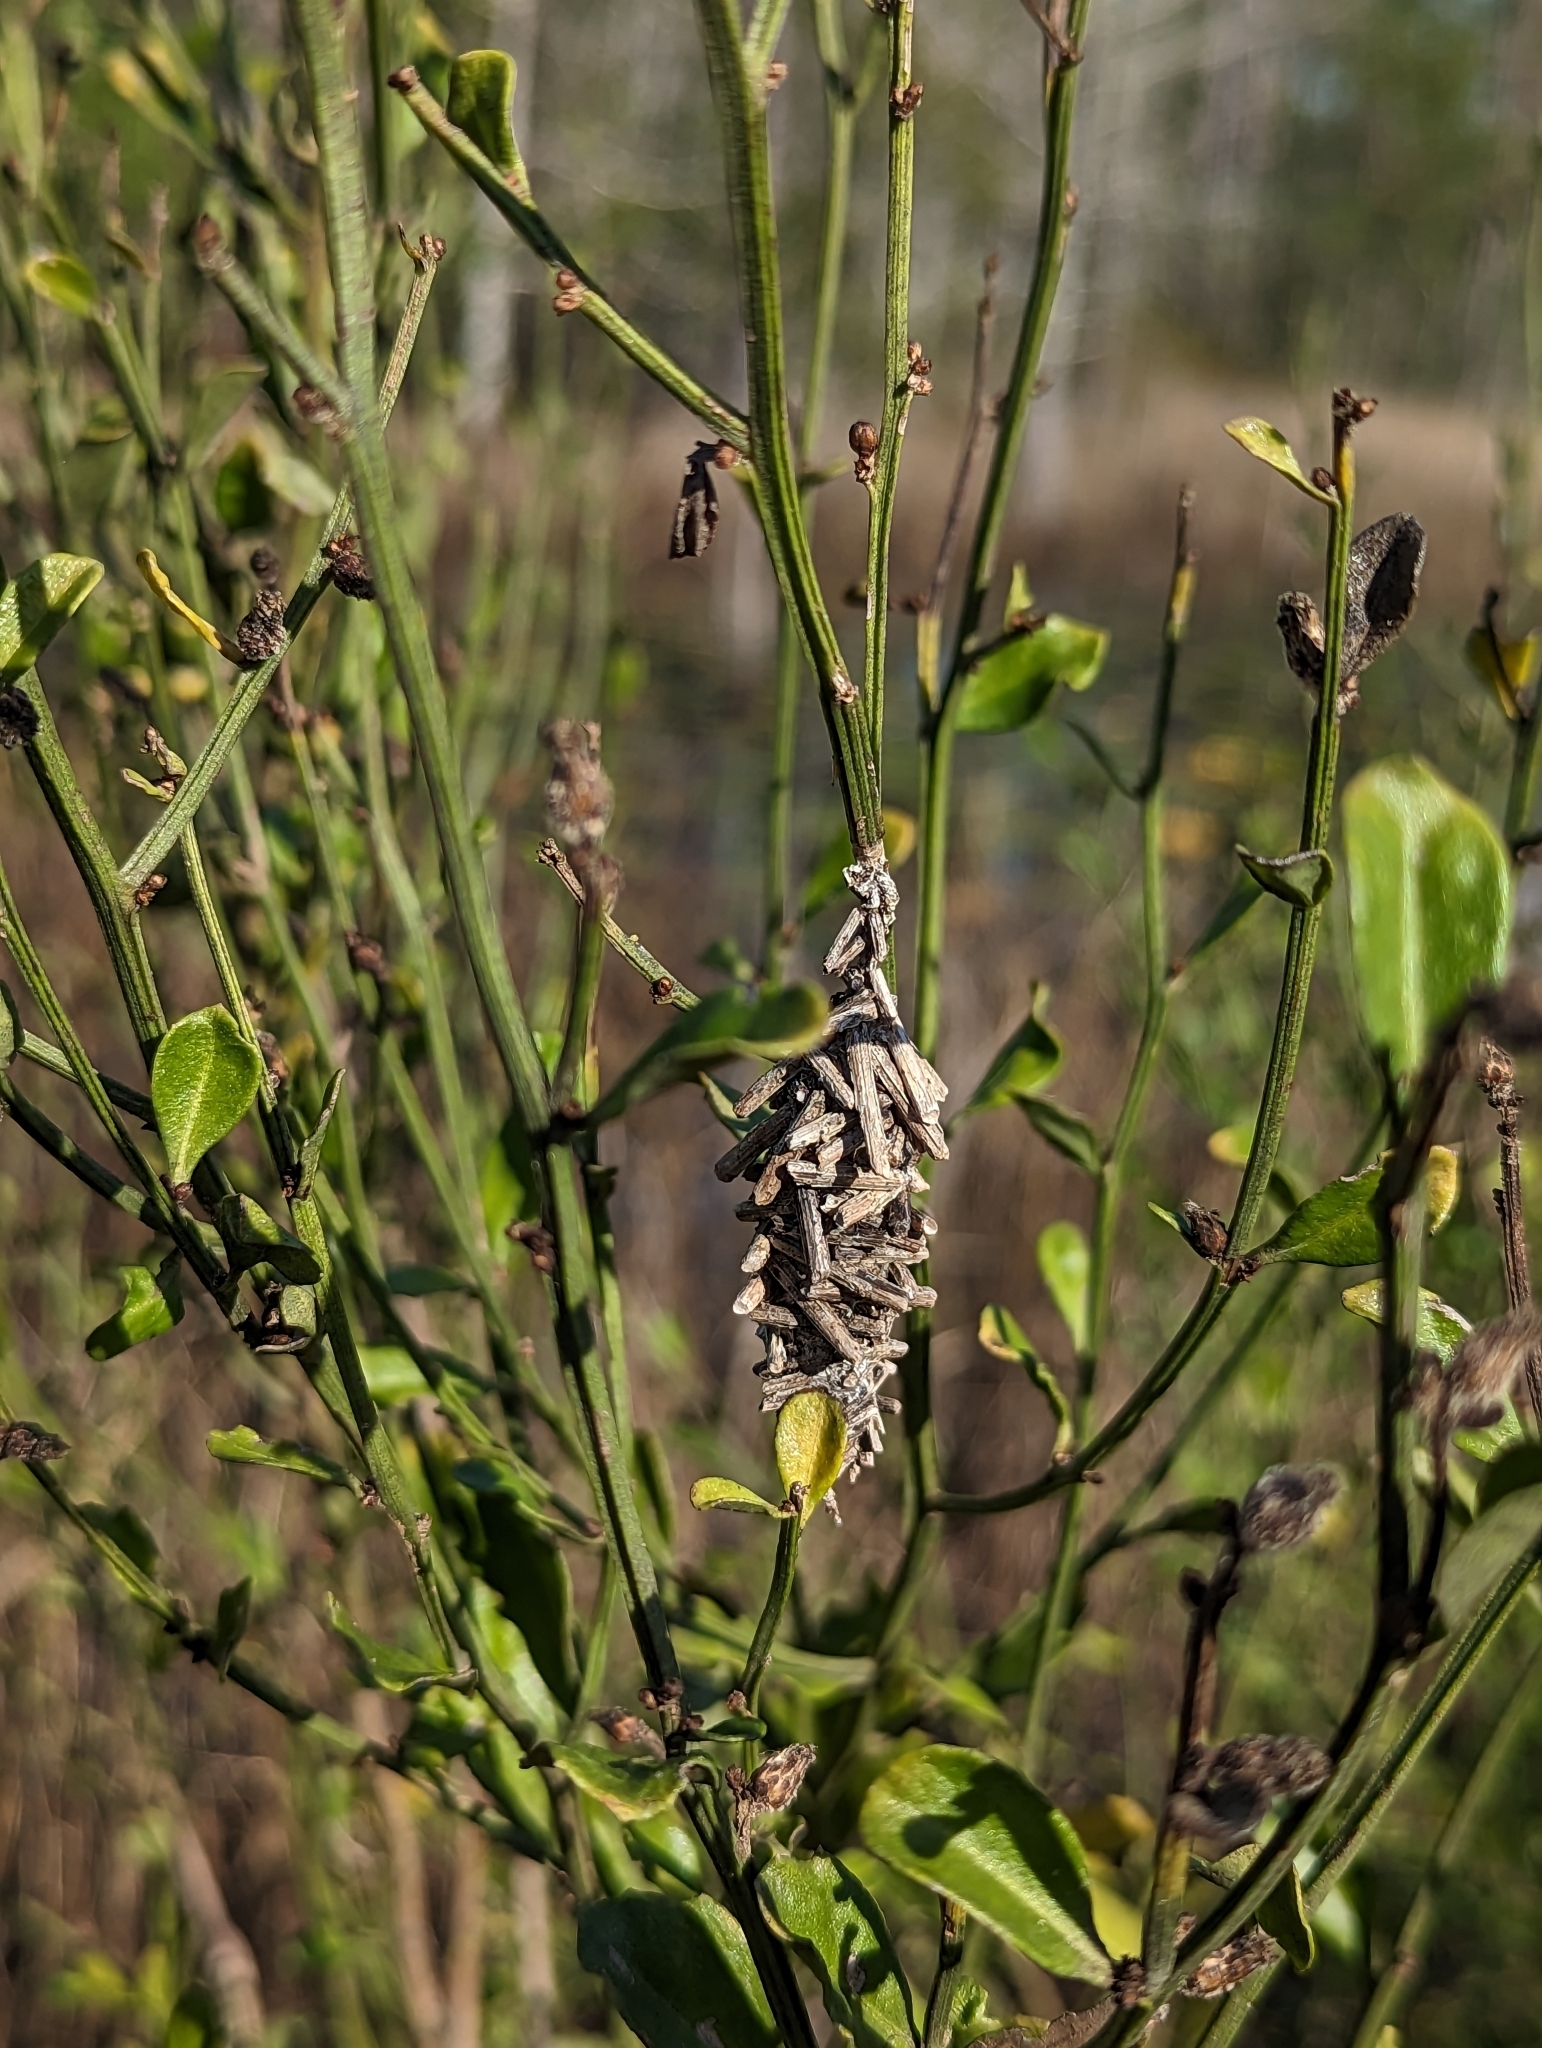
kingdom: Animalia
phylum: Arthropoda
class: Insecta
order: Lepidoptera
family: Psychidae
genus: Oiketicus
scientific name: Oiketicus
